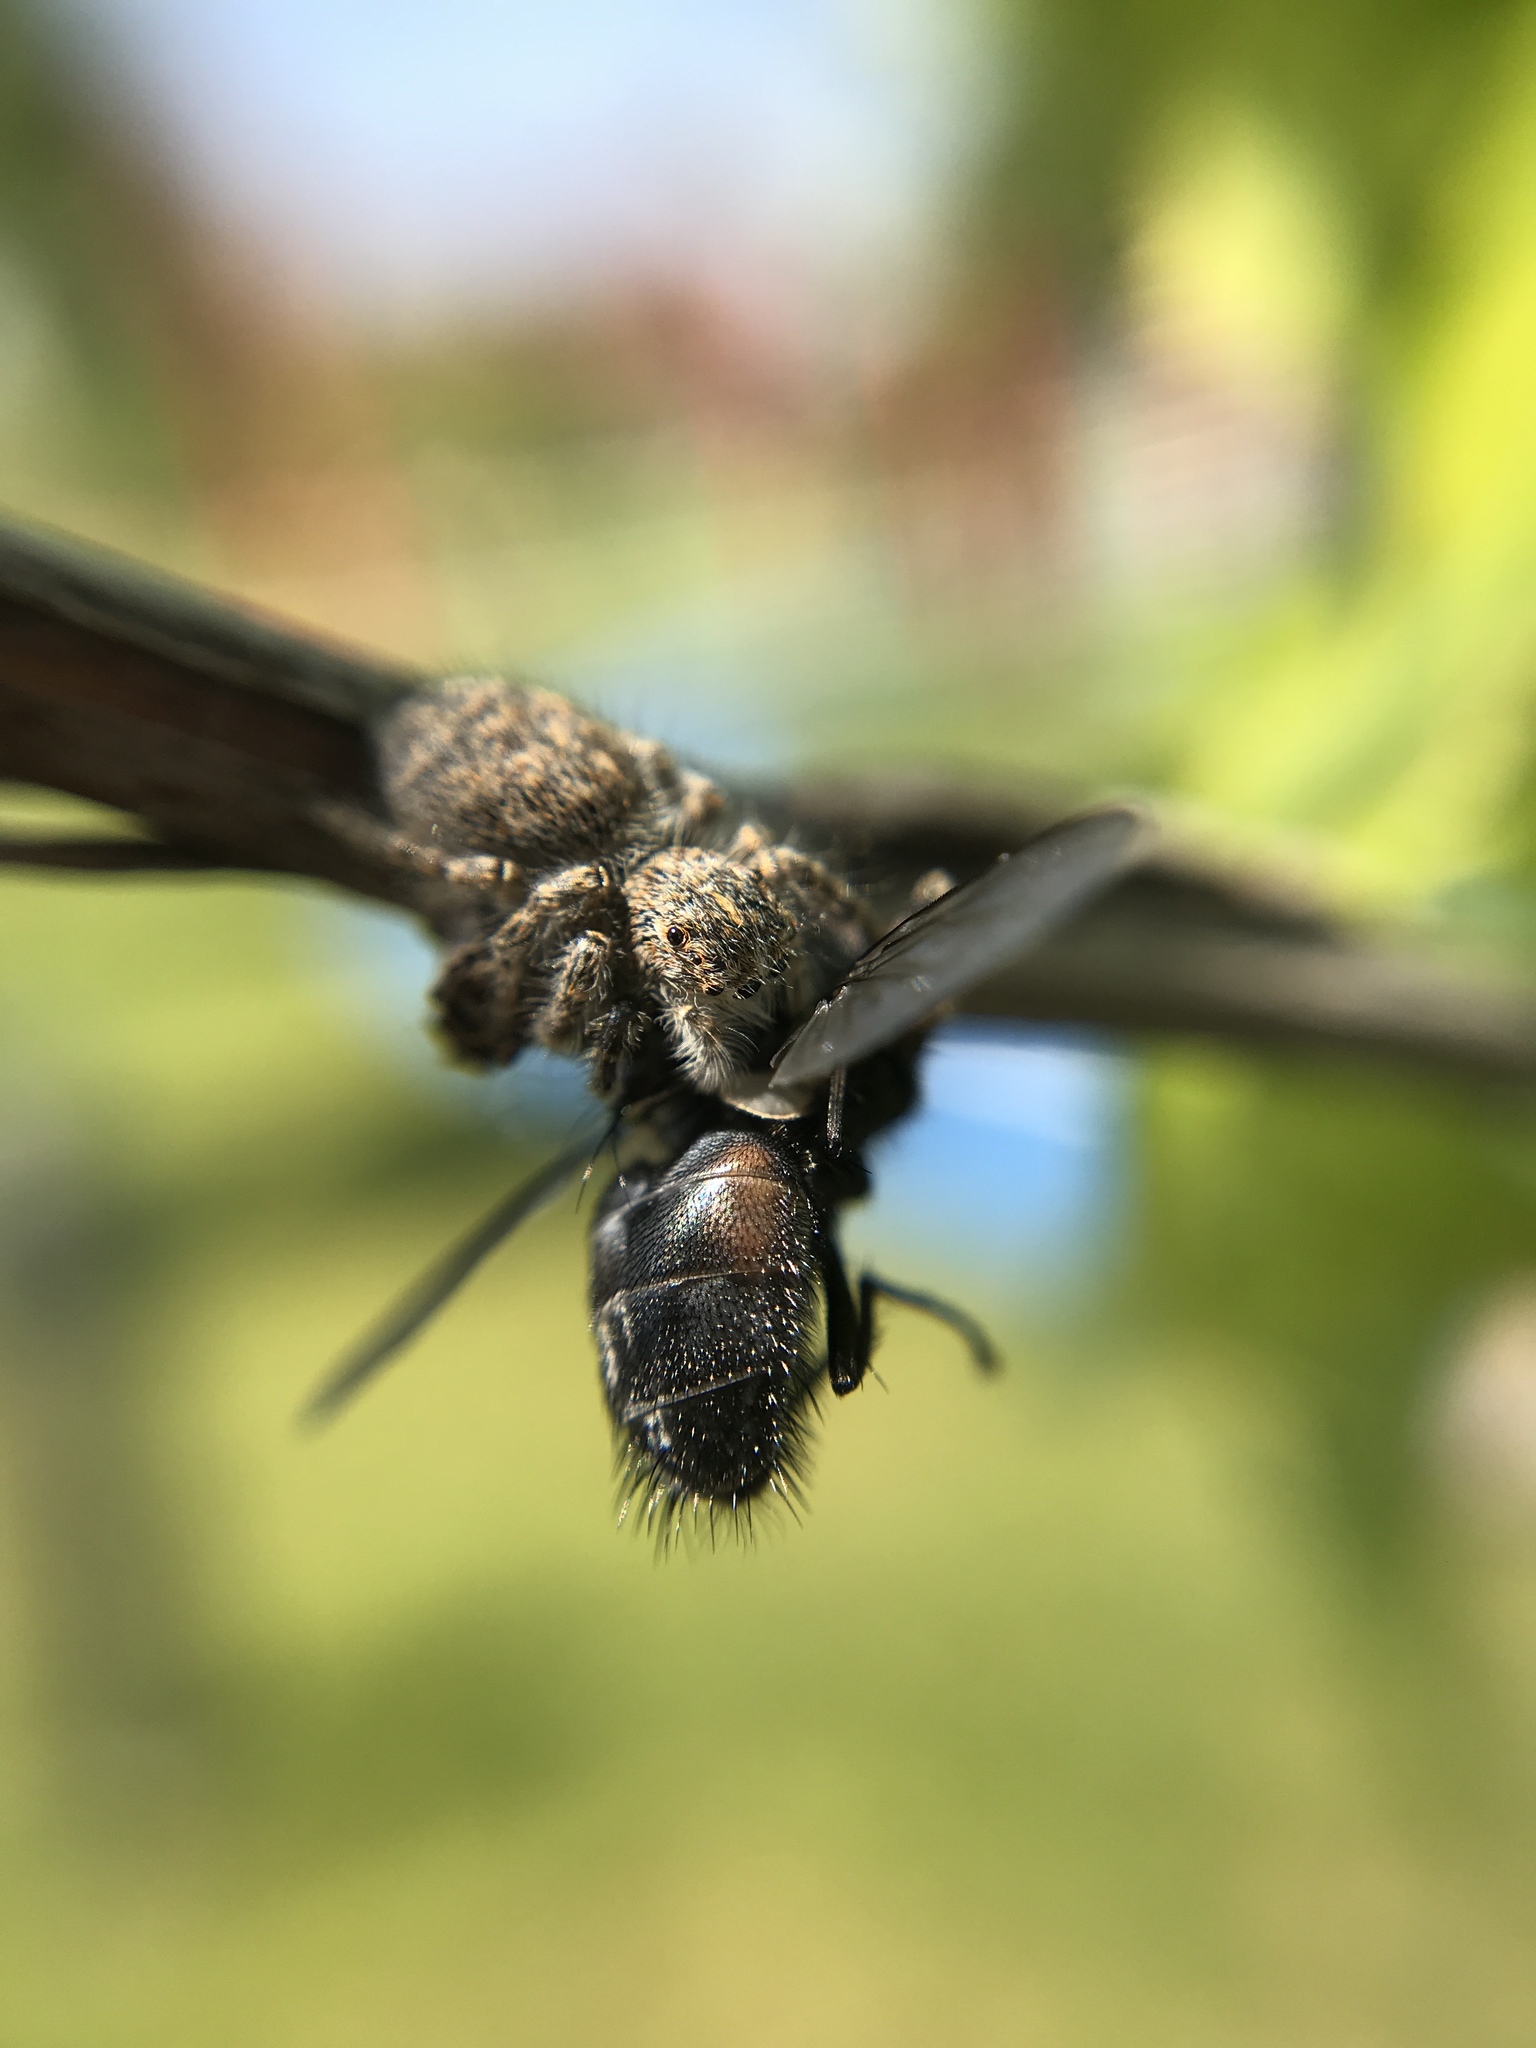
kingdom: Animalia
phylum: Arthropoda
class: Arachnida
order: Araneae
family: Salticidae
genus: Philaeus
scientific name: Philaeus chrysops
